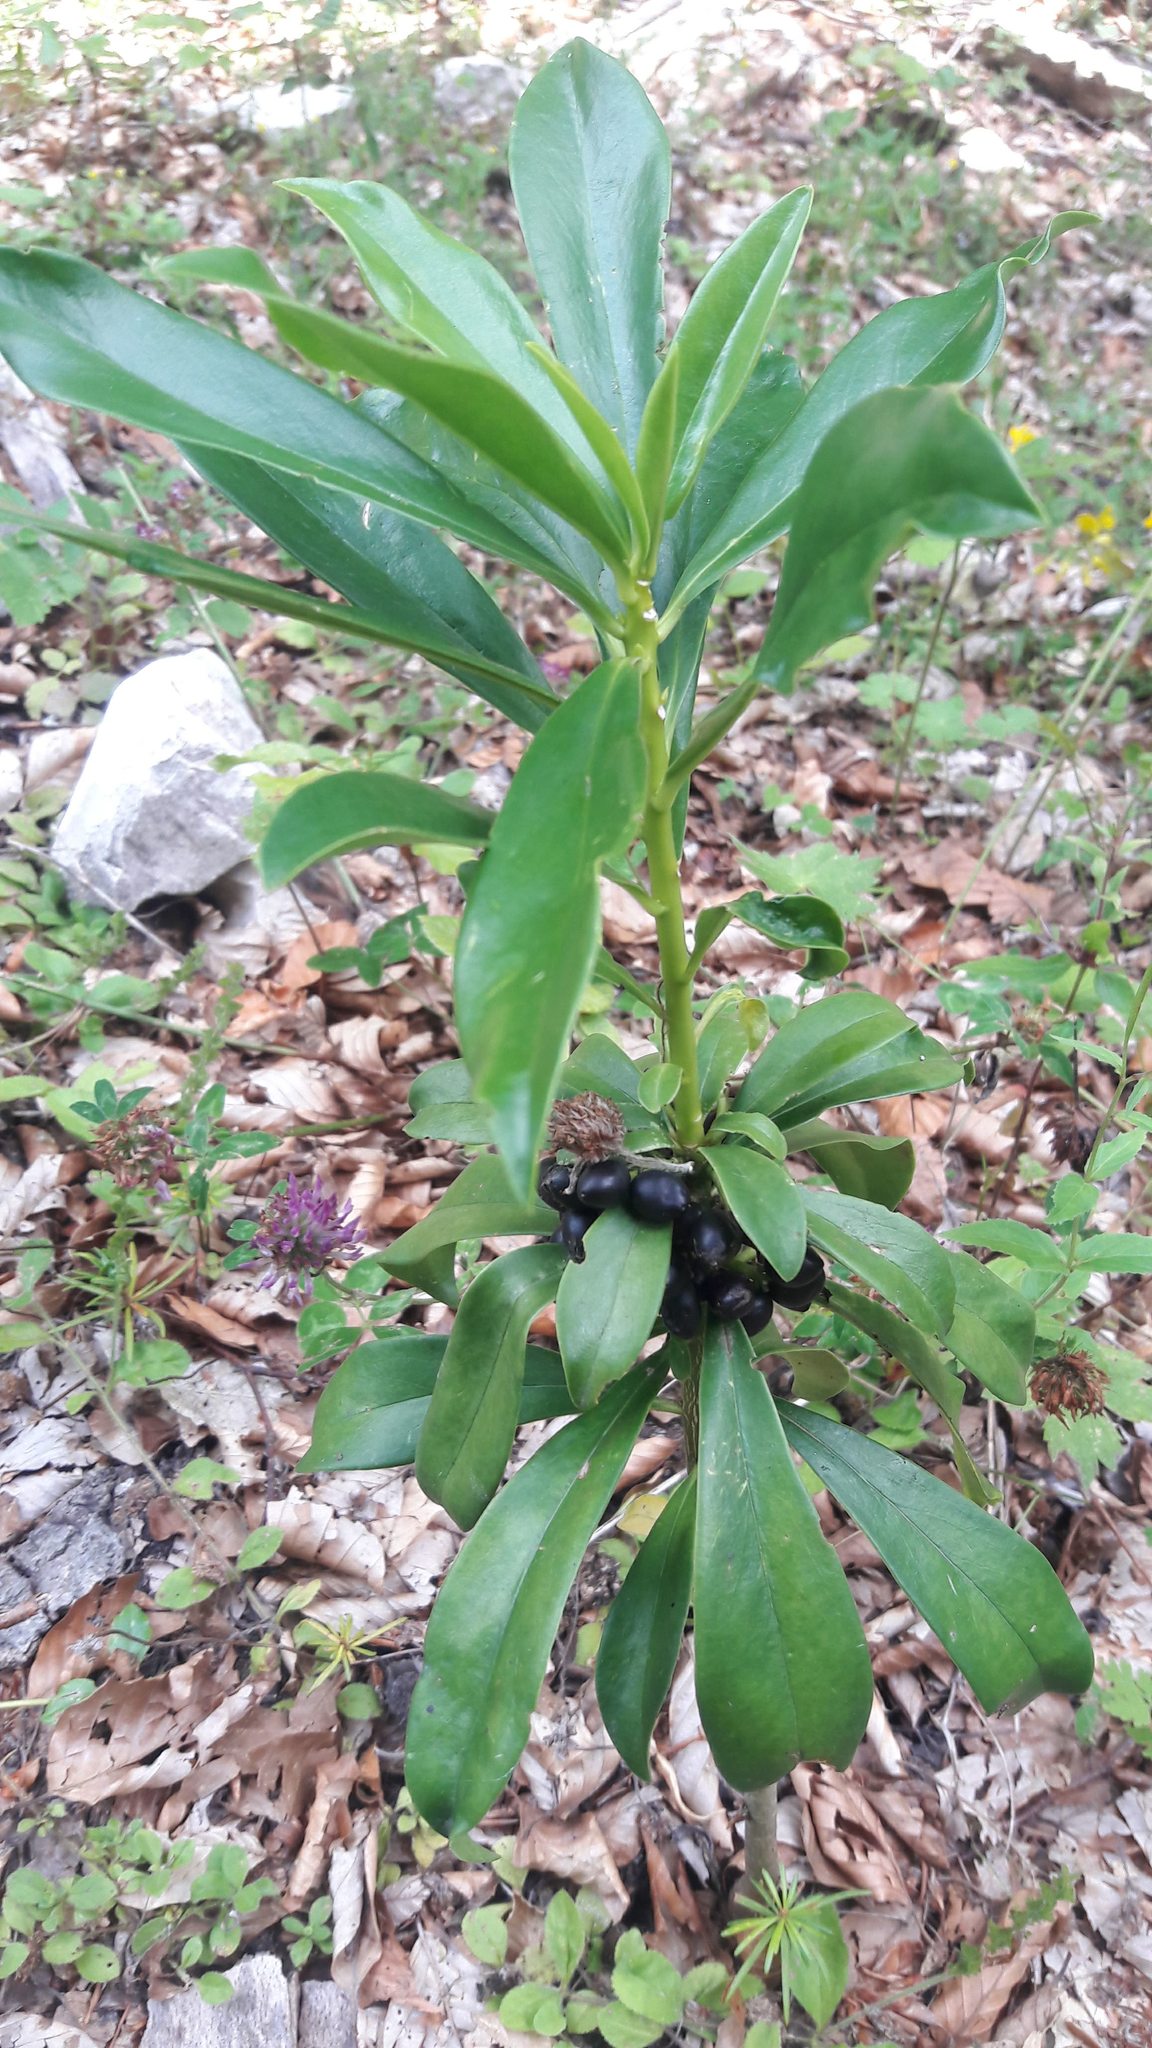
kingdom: Plantae
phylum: Tracheophyta
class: Magnoliopsida
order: Malvales
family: Thymelaeaceae
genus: Daphne
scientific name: Daphne laureola
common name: Spurge-laurel
